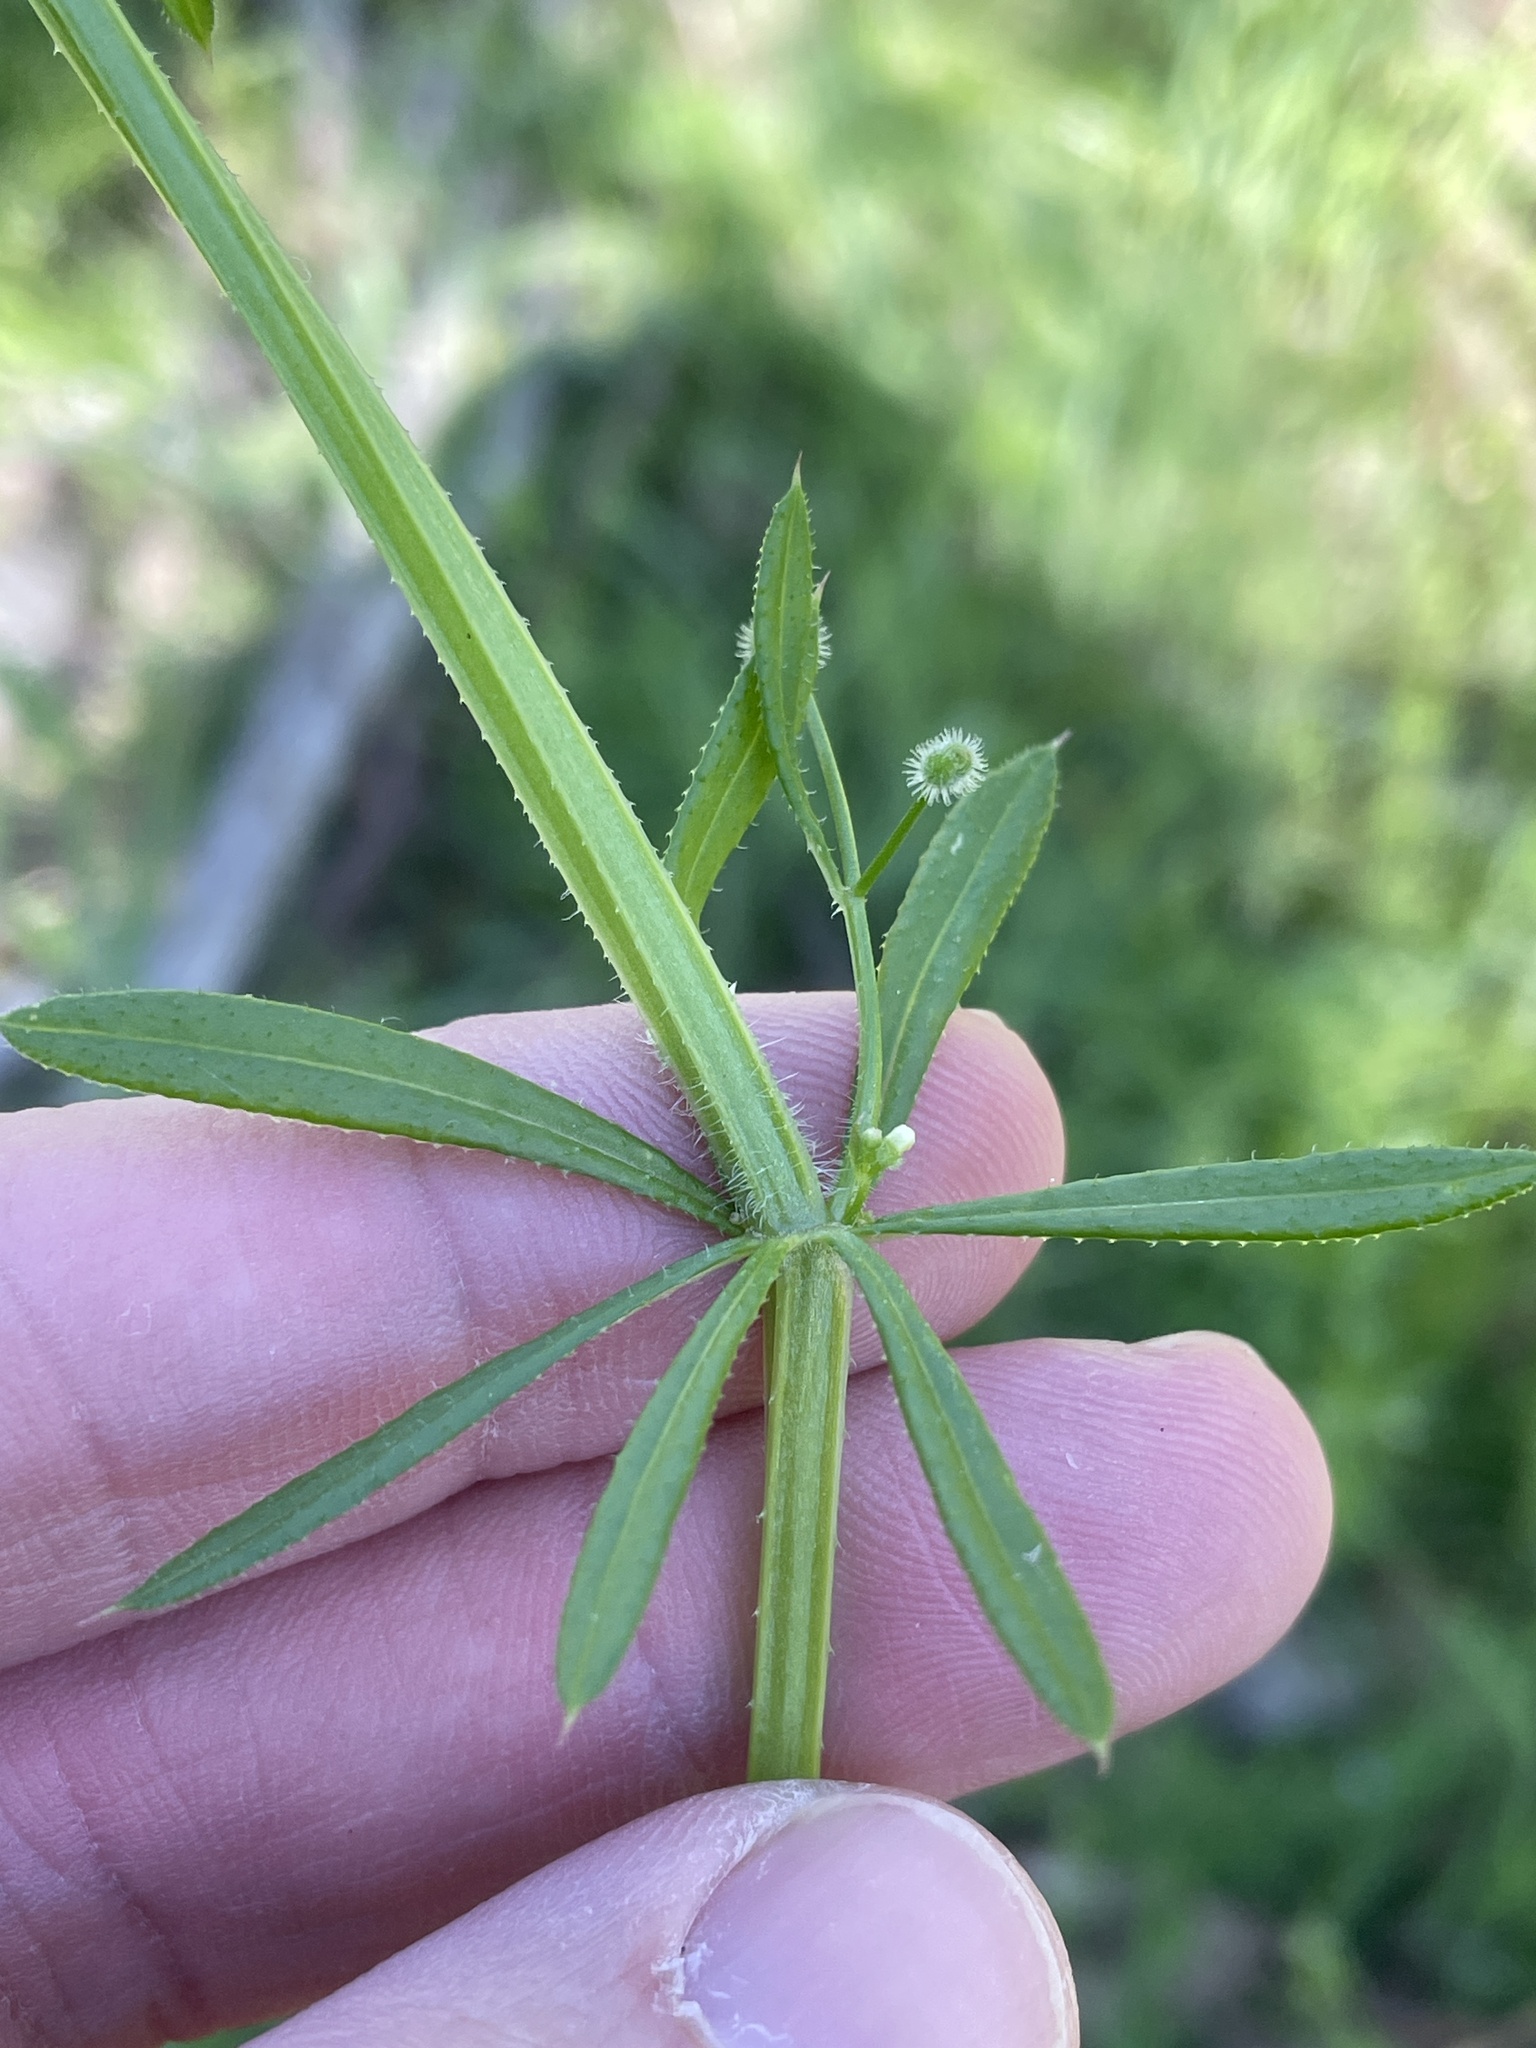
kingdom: Plantae
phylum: Tracheophyta
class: Magnoliopsida
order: Gentianales
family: Rubiaceae
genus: Galium
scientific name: Galium aparine
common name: Cleavers
